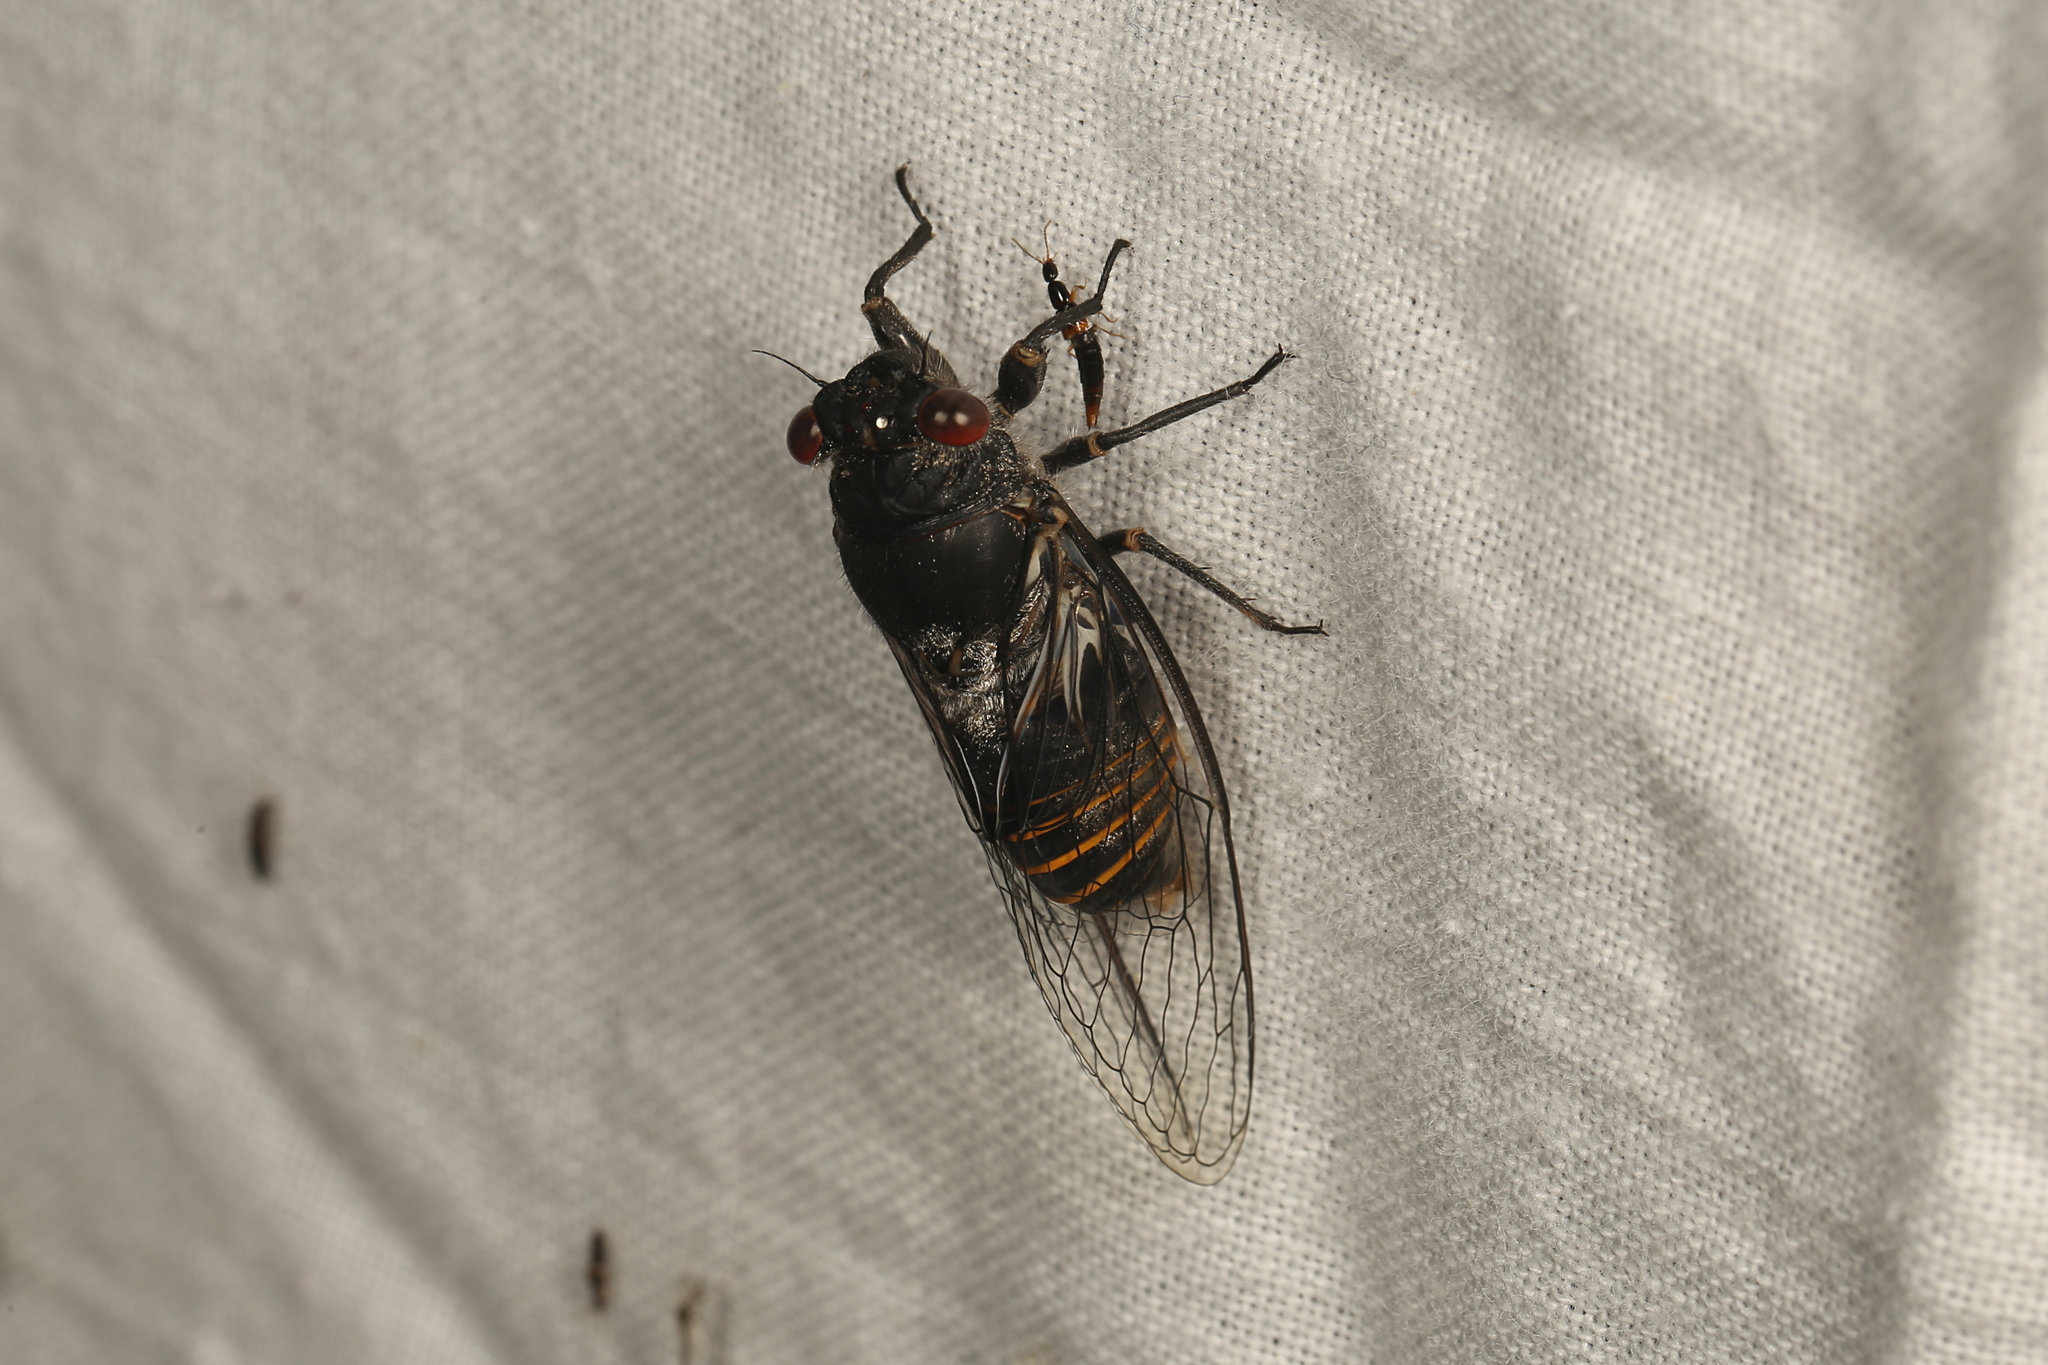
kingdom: Animalia
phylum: Arthropoda
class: Insecta
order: Hemiptera
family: Cicadidae
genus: Pauropsalta
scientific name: Pauropsalta castanea
